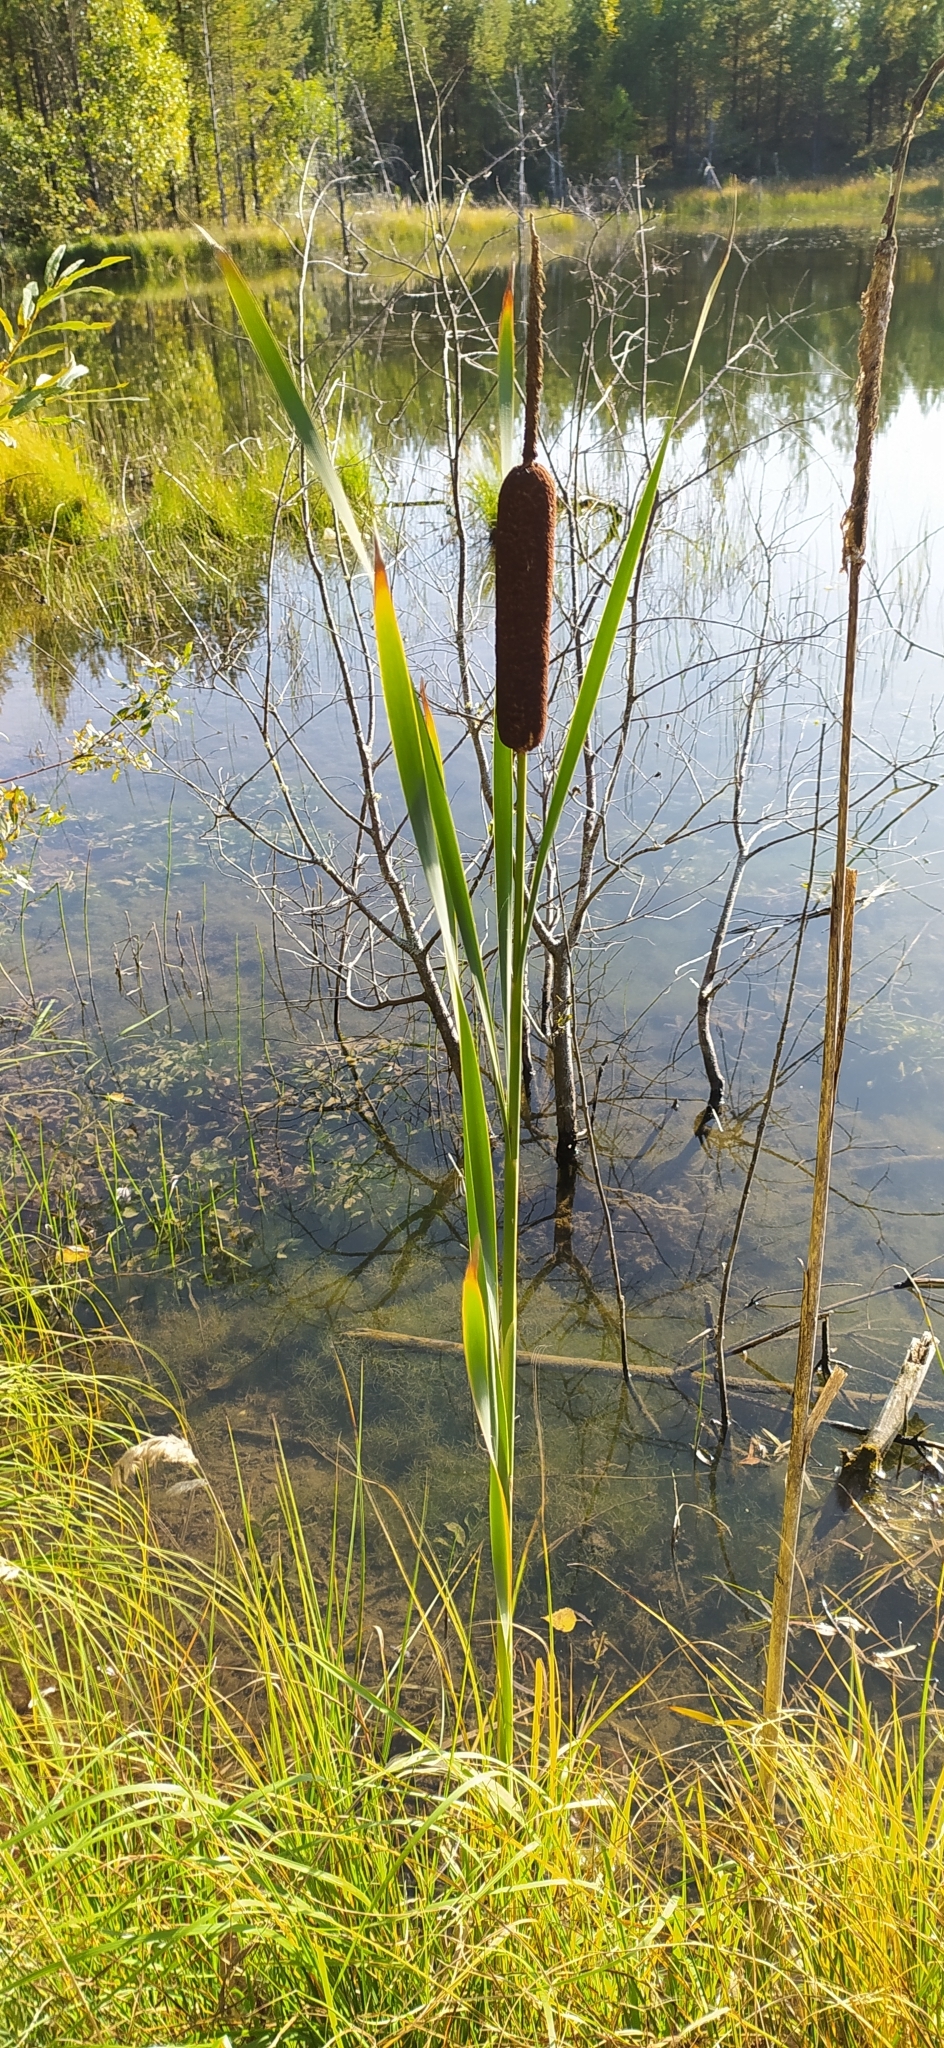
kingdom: Plantae
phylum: Tracheophyta
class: Liliopsida
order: Poales
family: Typhaceae
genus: Typha
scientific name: Typha latifolia
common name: Broadleaf cattail
